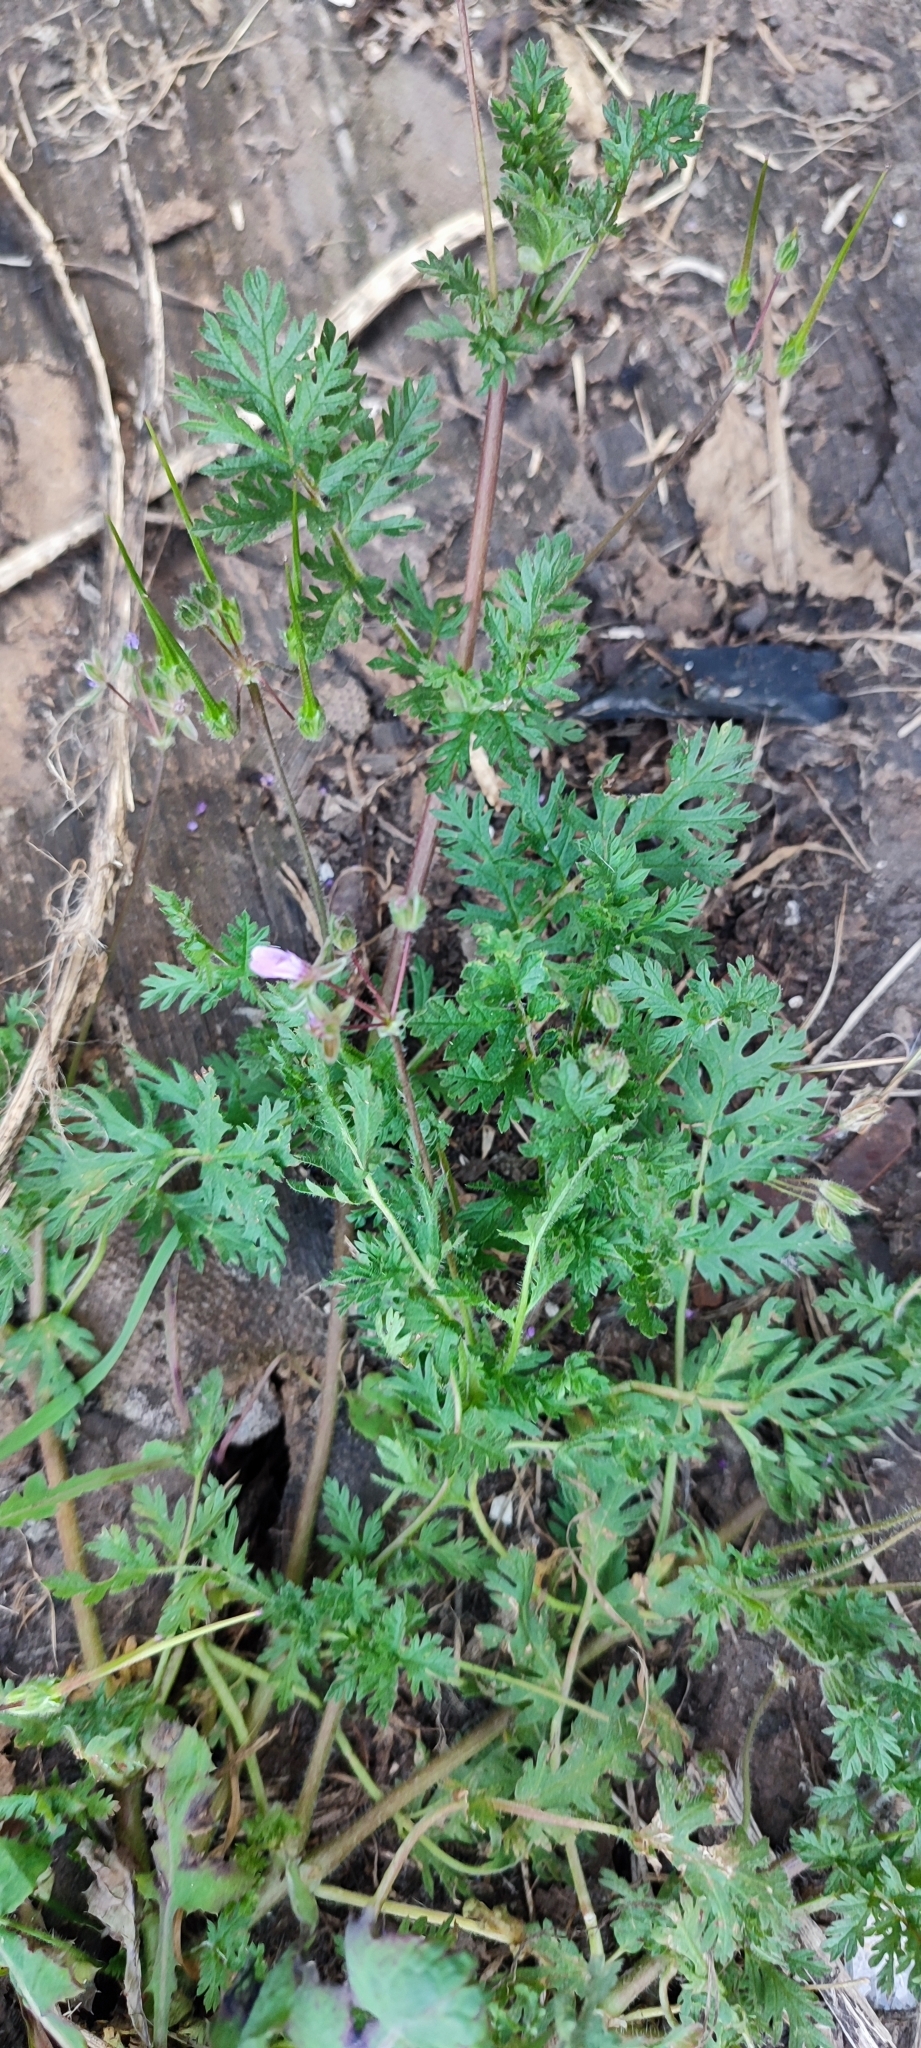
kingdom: Plantae
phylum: Tracheophyta
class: Magnoliopsida
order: Geraniales
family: Geraniaceae
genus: Erodium
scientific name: Erodium cicutarium
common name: Common stork's-bill
